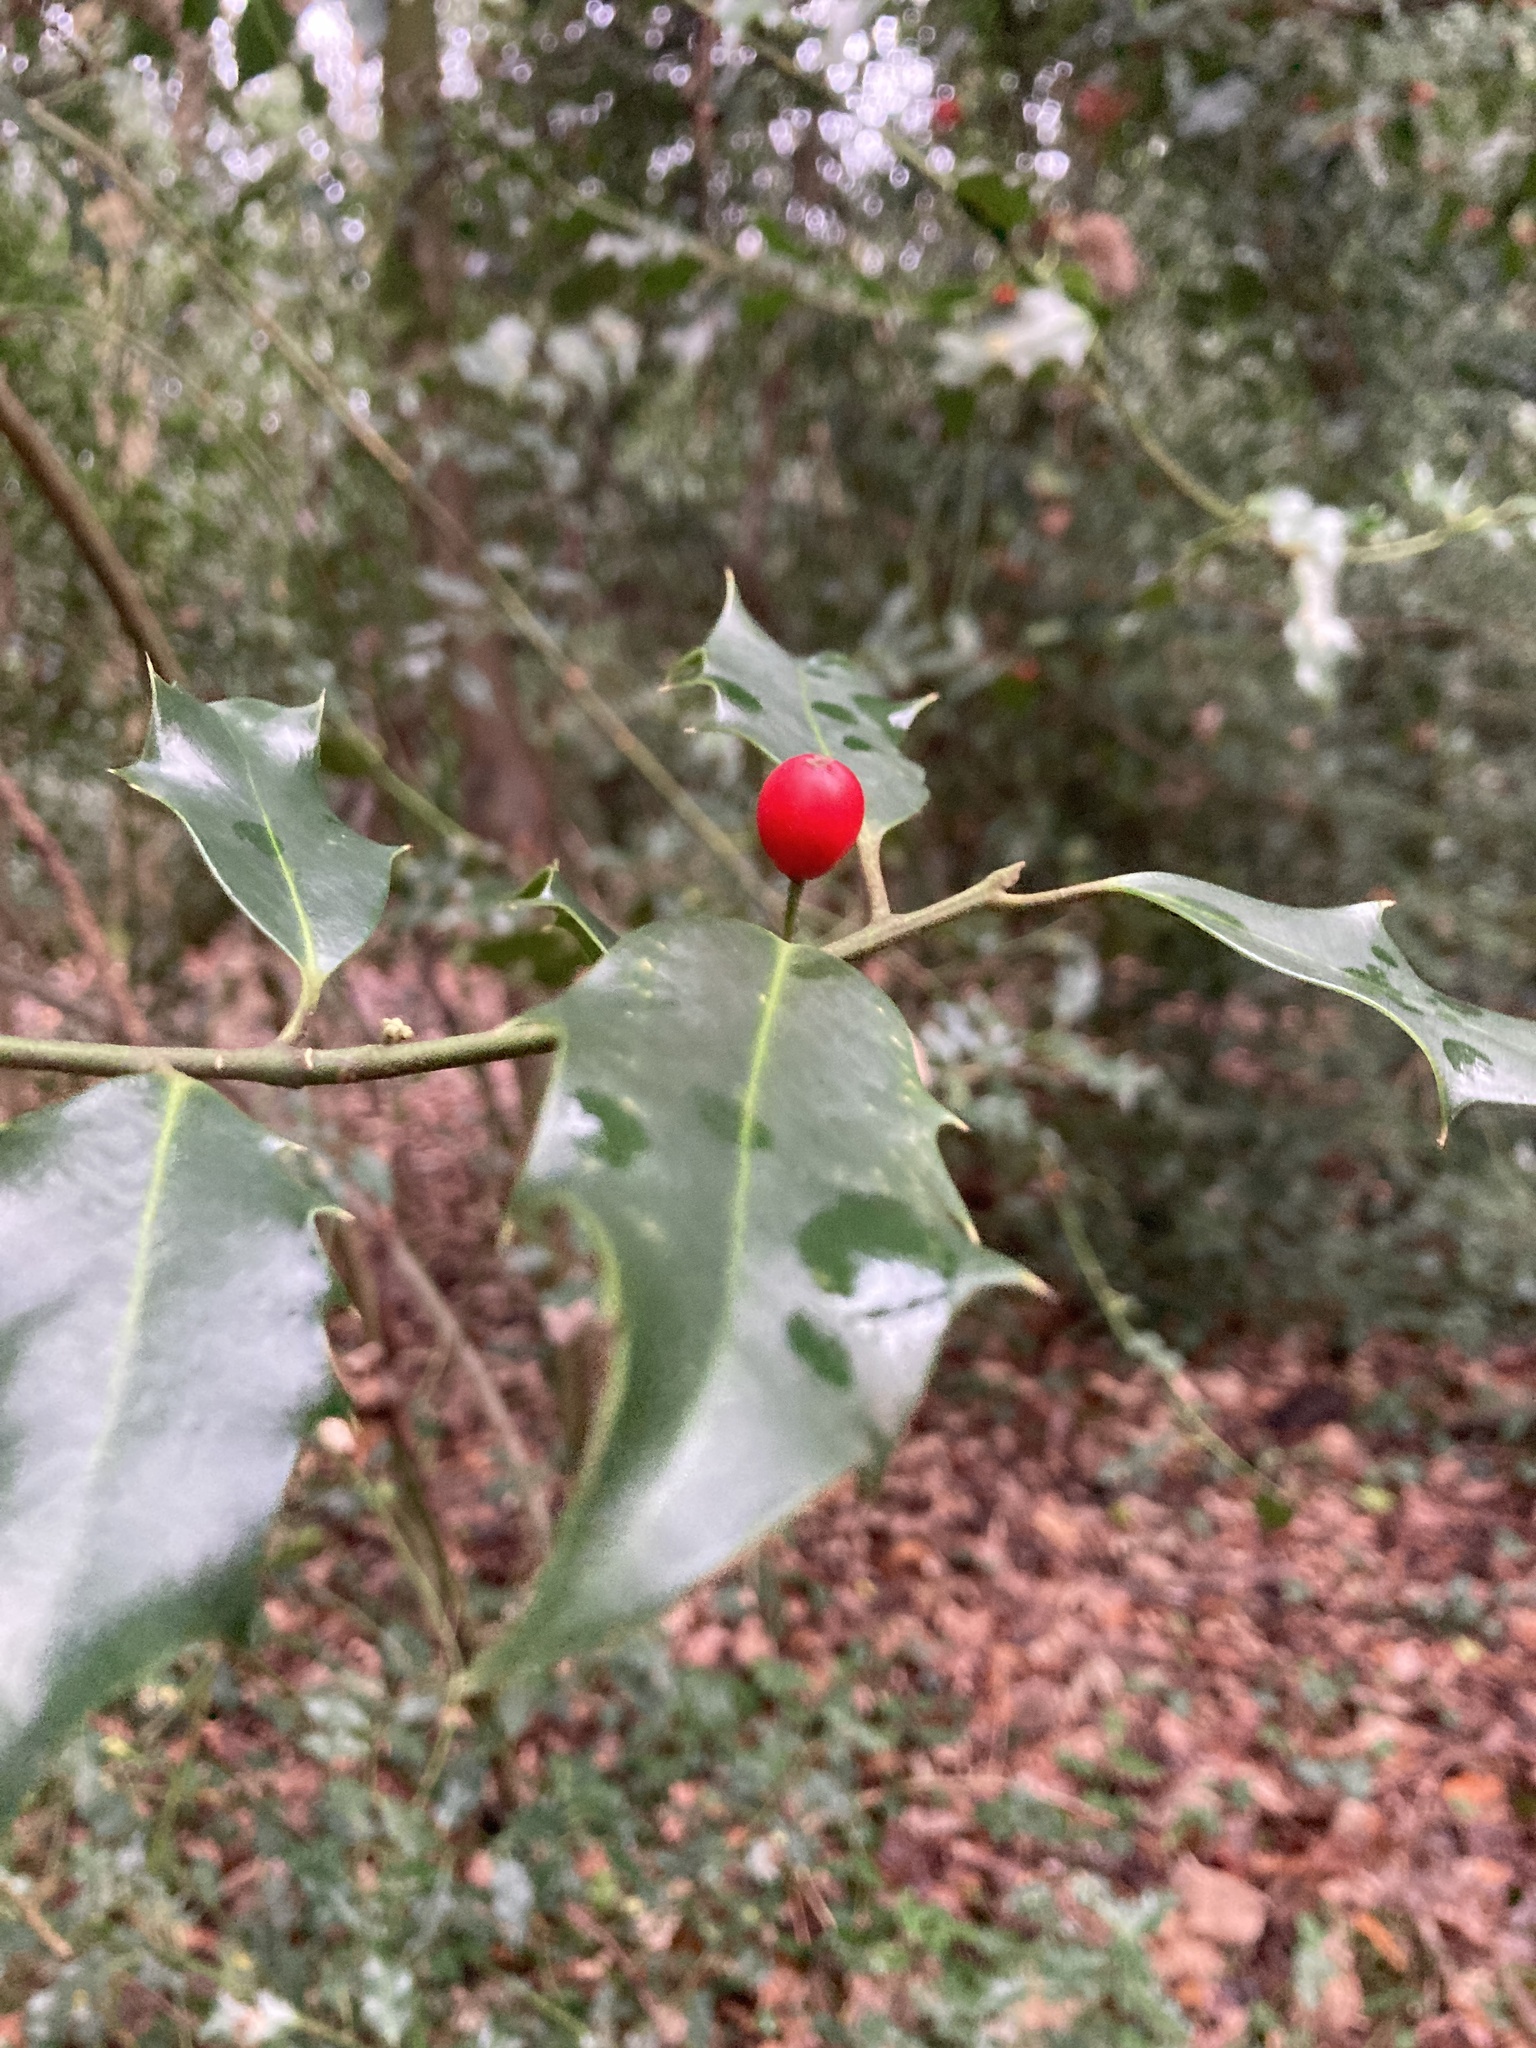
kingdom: Plantae
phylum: Tracheophyta
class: Magnoliopsida
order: Aquifoliales
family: Aquifoliaceae
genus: Ilex
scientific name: Ilex aquifolium
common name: English holly
